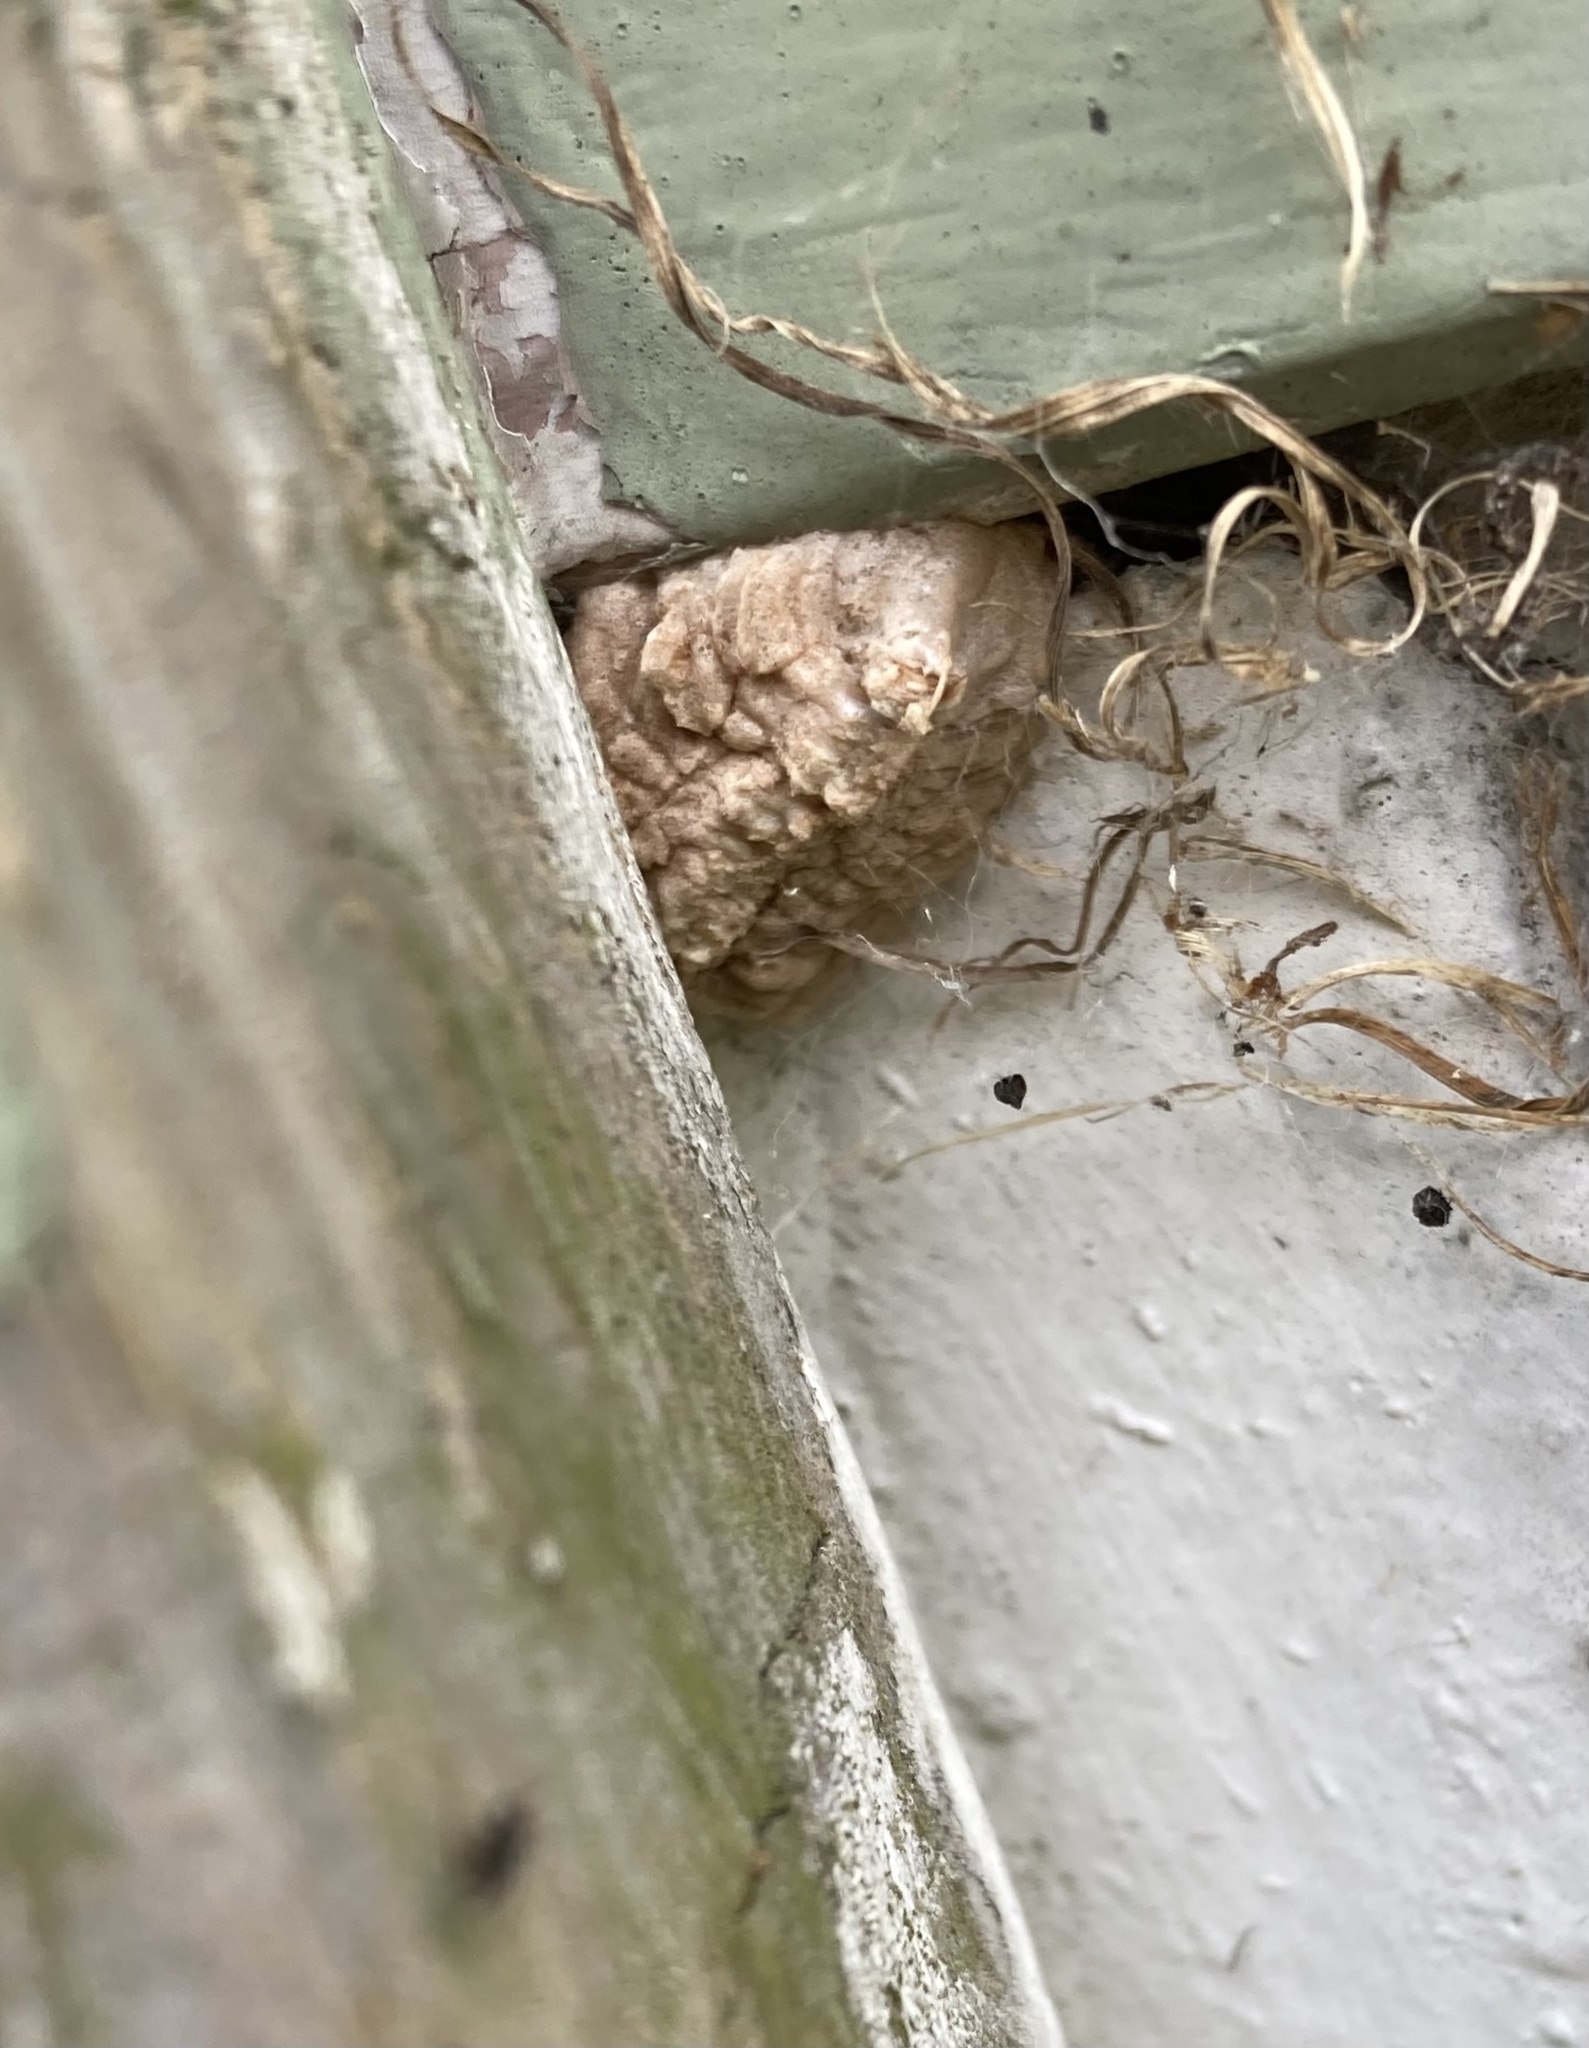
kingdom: Animalia
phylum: Arthropoda
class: Insecta
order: Mantodea
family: Miomantidae
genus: Miomantis
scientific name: Miomantis caffra
